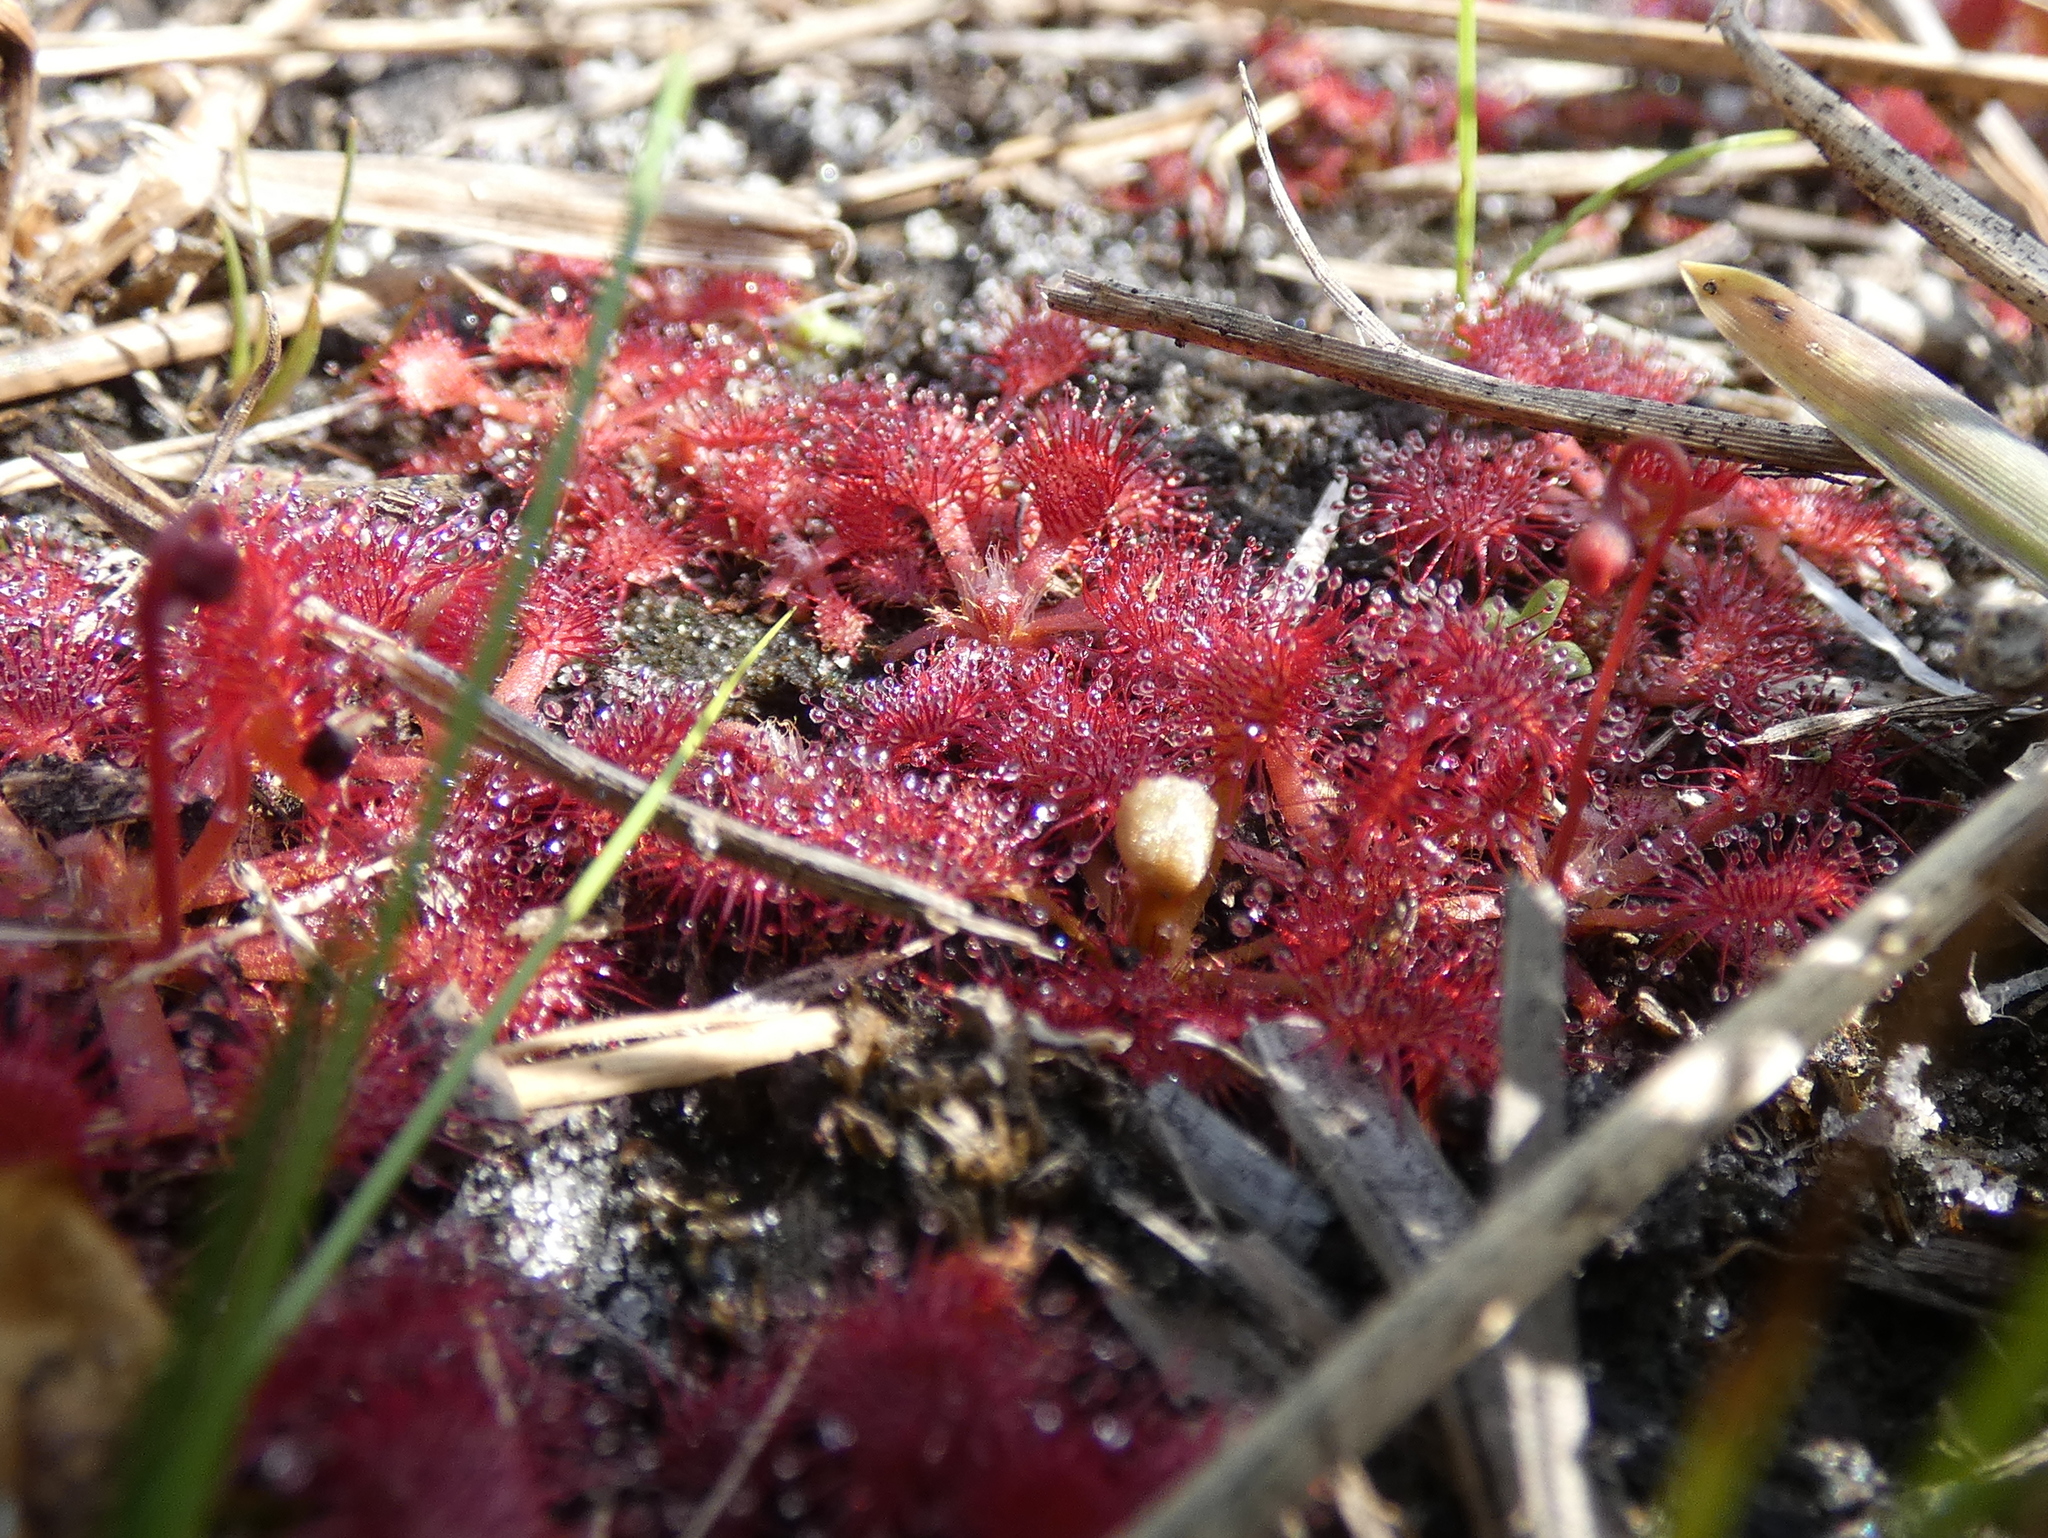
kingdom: Plantae
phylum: Tracheophyta
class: Magnoliopsida
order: Caryophyllales
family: Droseraceae
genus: Drosera
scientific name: Drosera capillaris
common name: Pink sundew
